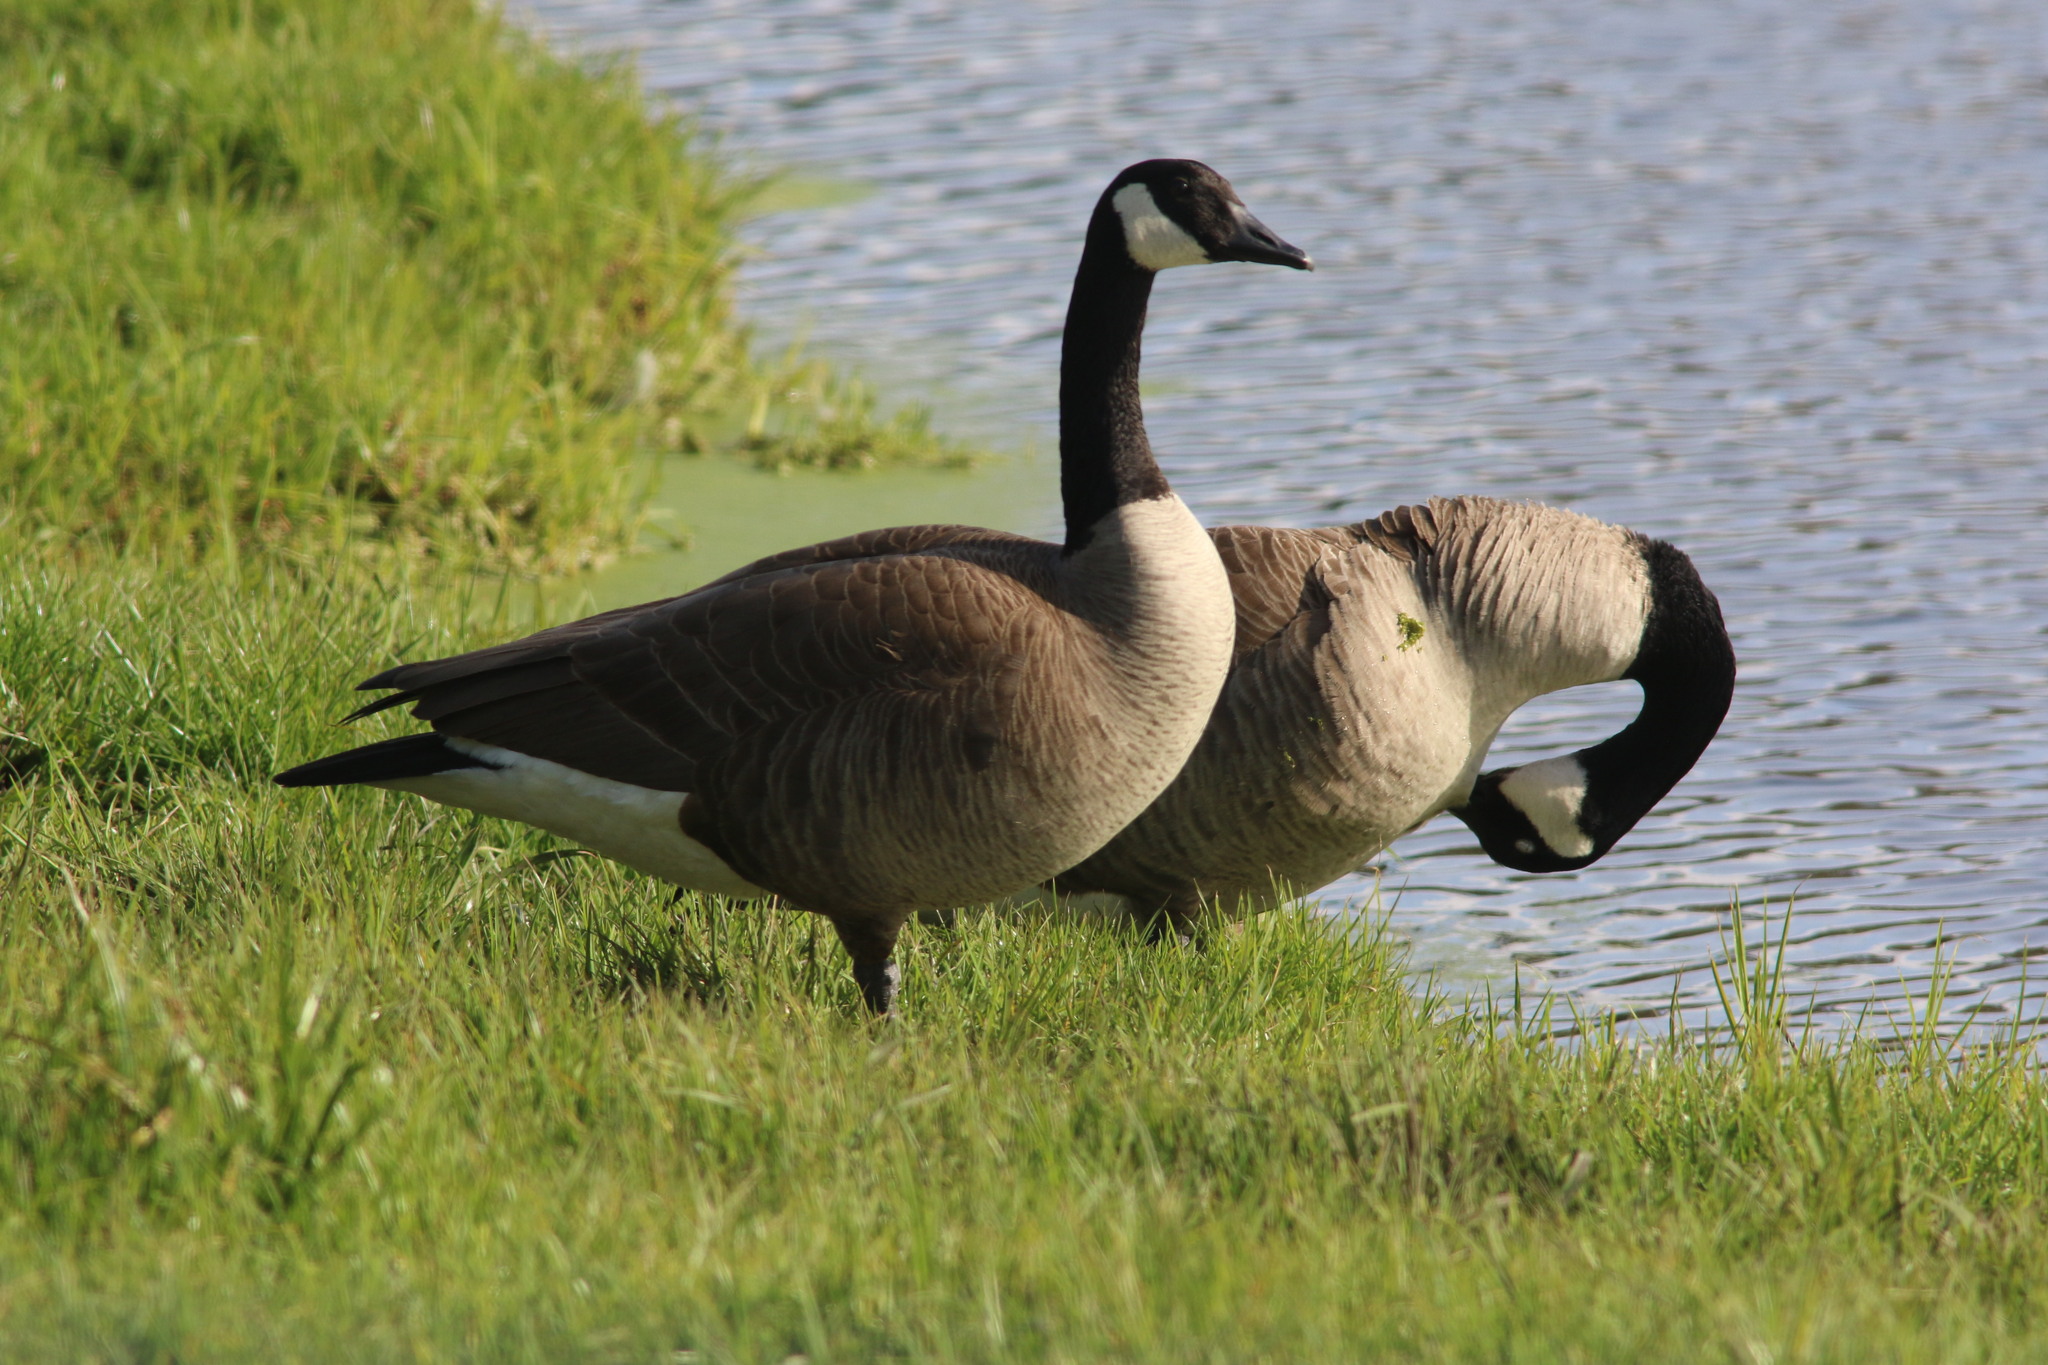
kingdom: Animalia
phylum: Chordata
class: Aves
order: Anseriformes
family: Anatidae
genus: Branta
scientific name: Branta canadensis
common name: Canada goose
